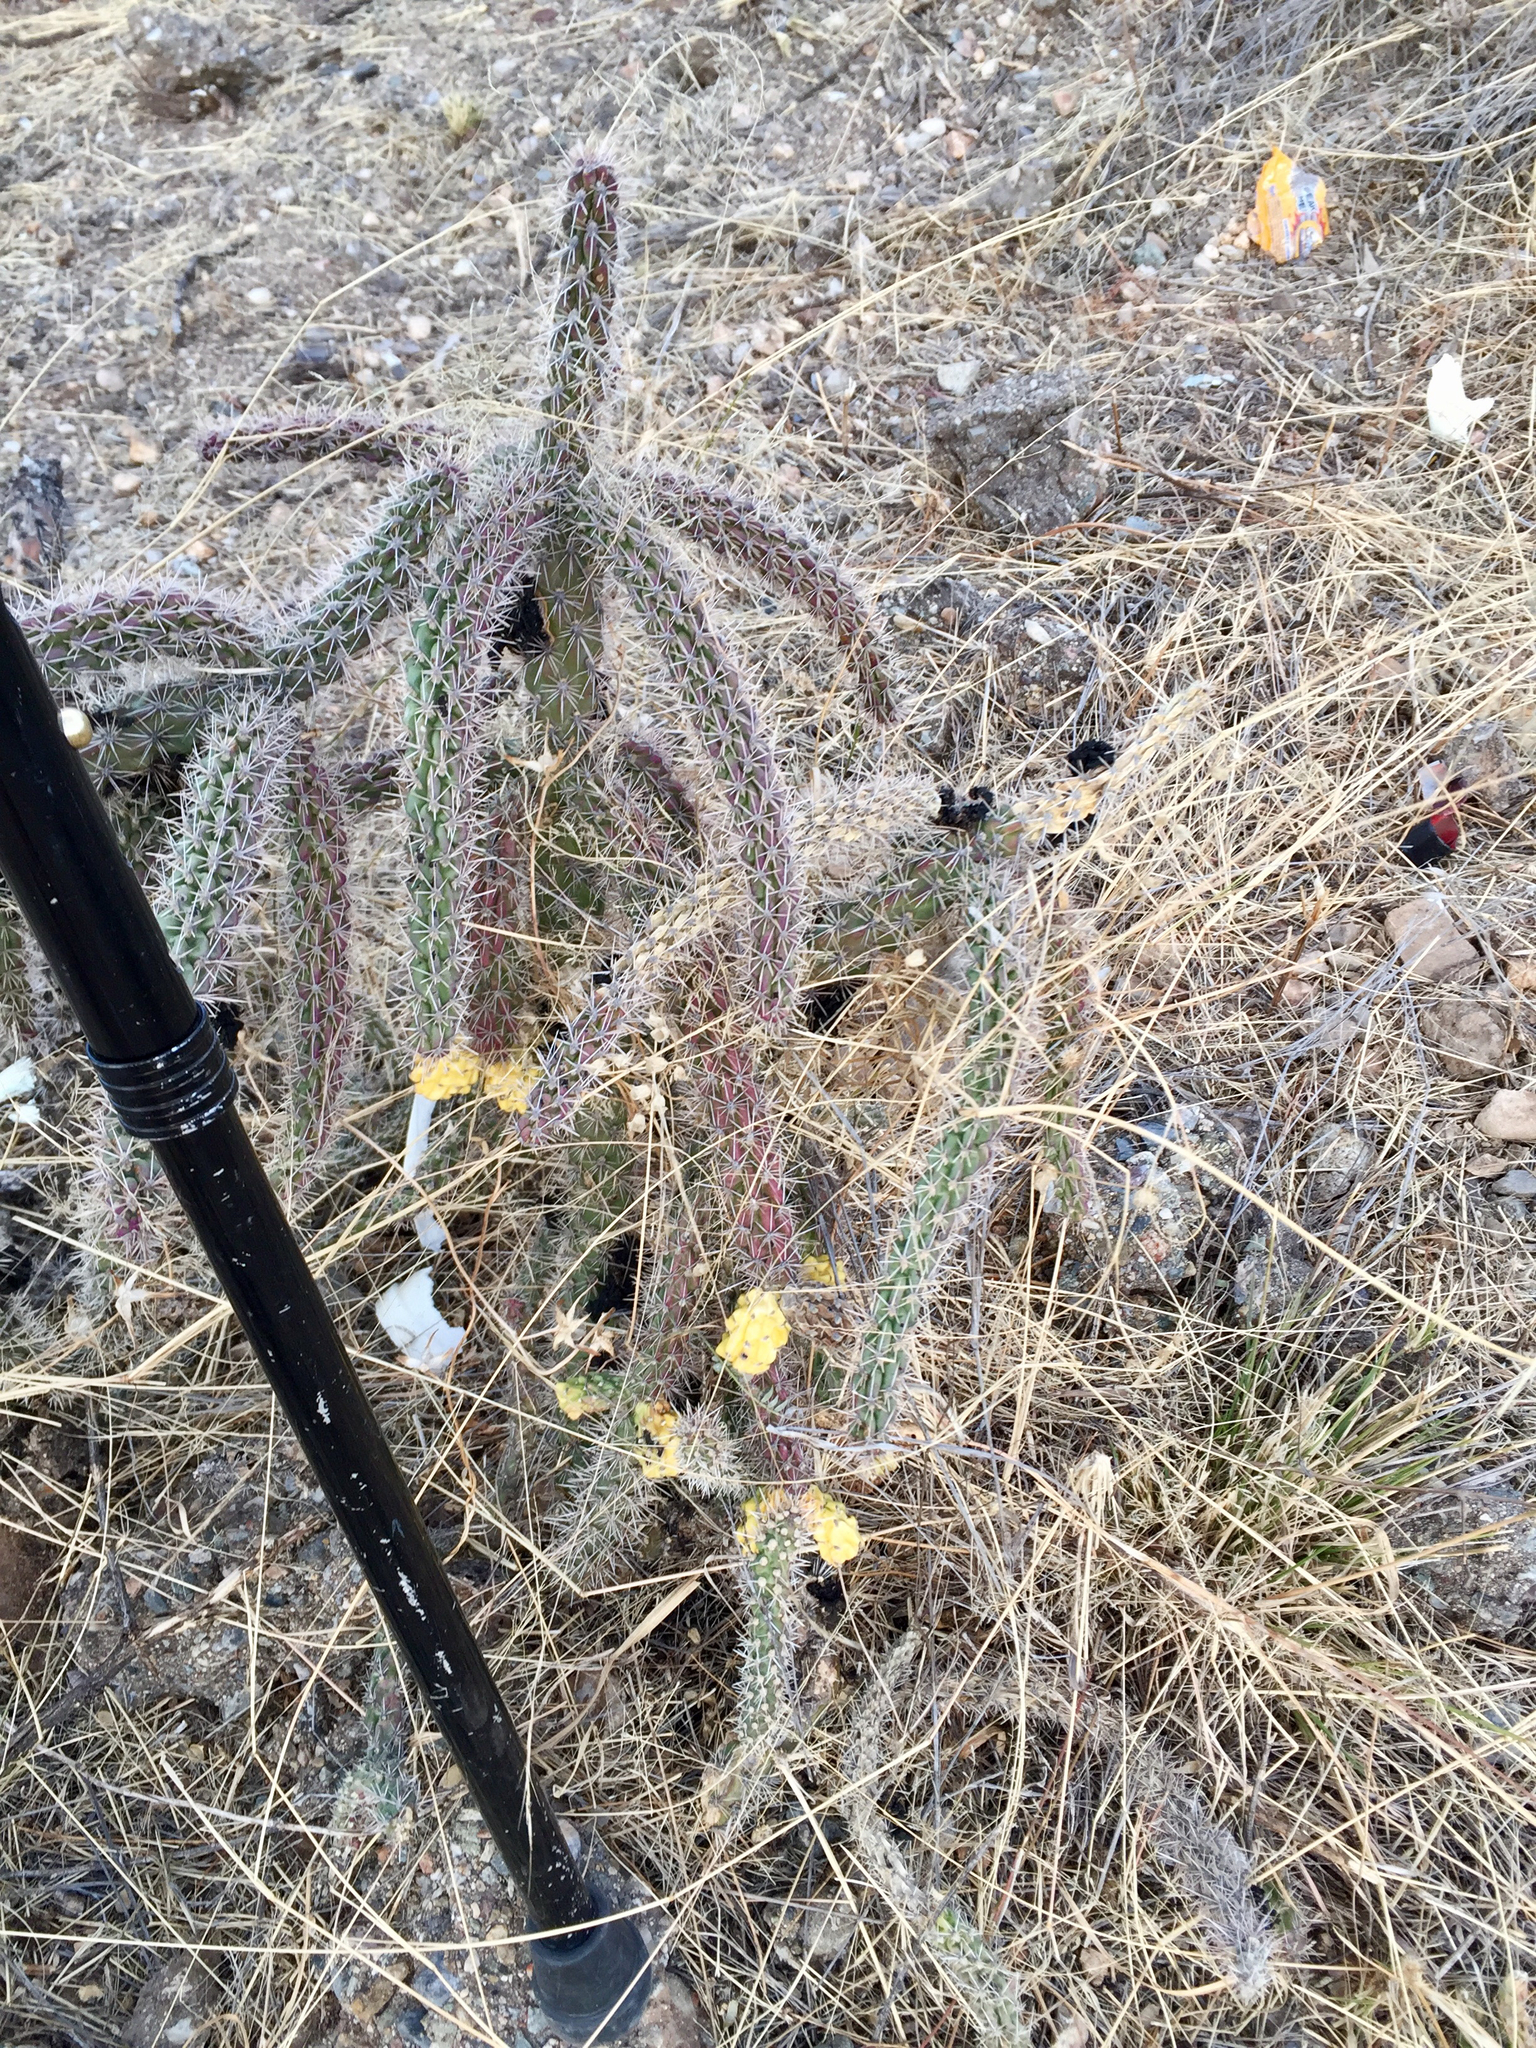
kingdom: Plantae
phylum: Tracheophyta
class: Magnoliopsida
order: Caryophyllales
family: Cactaceae
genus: Cylindropuntia
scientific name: Cylindropuntia thurberi
